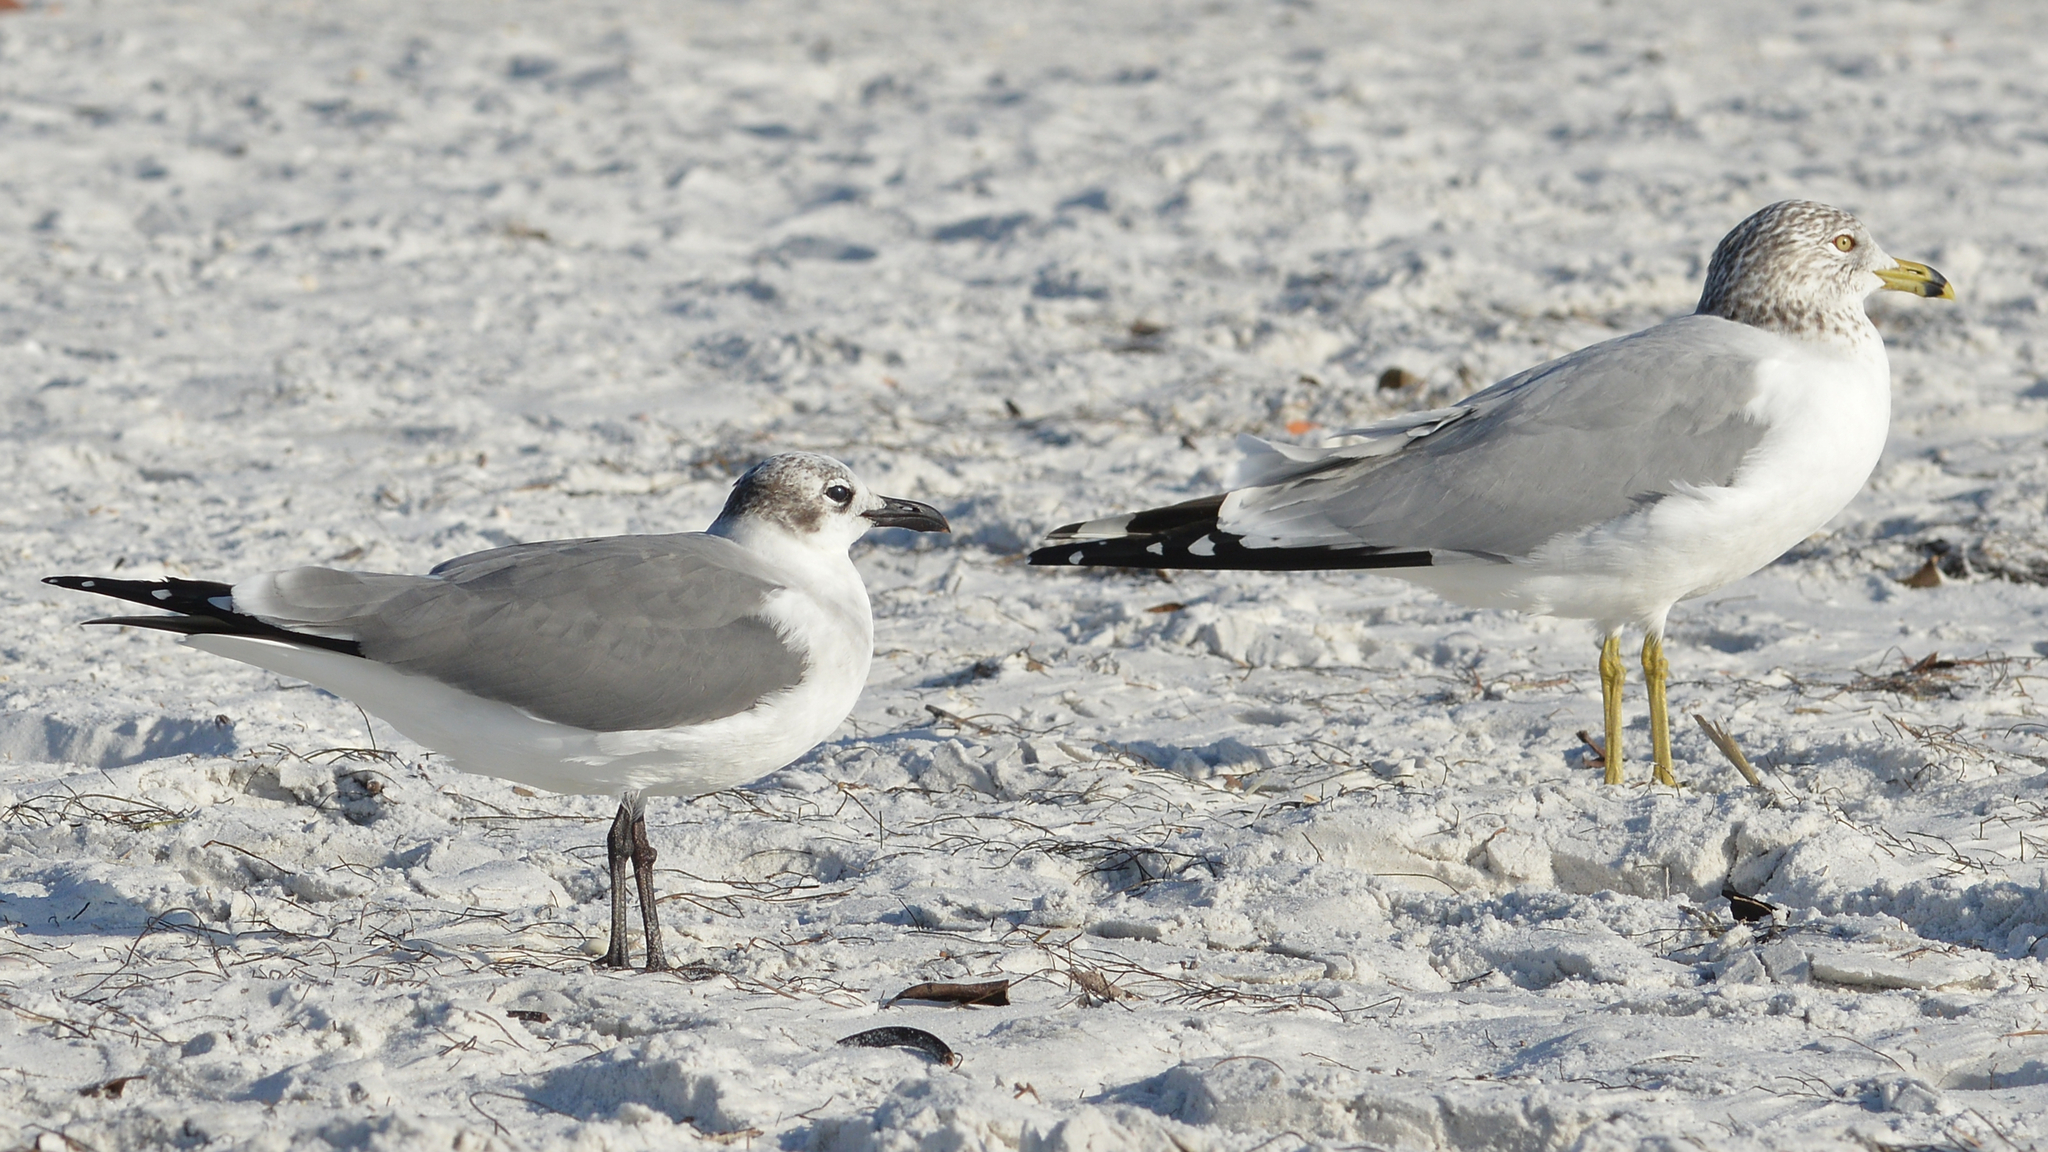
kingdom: Animalia
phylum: Chordata
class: Aves
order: Charadriiformes
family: Laridae
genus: Leucophaeus
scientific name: Leucophaeus atricilla
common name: Laughing gull
